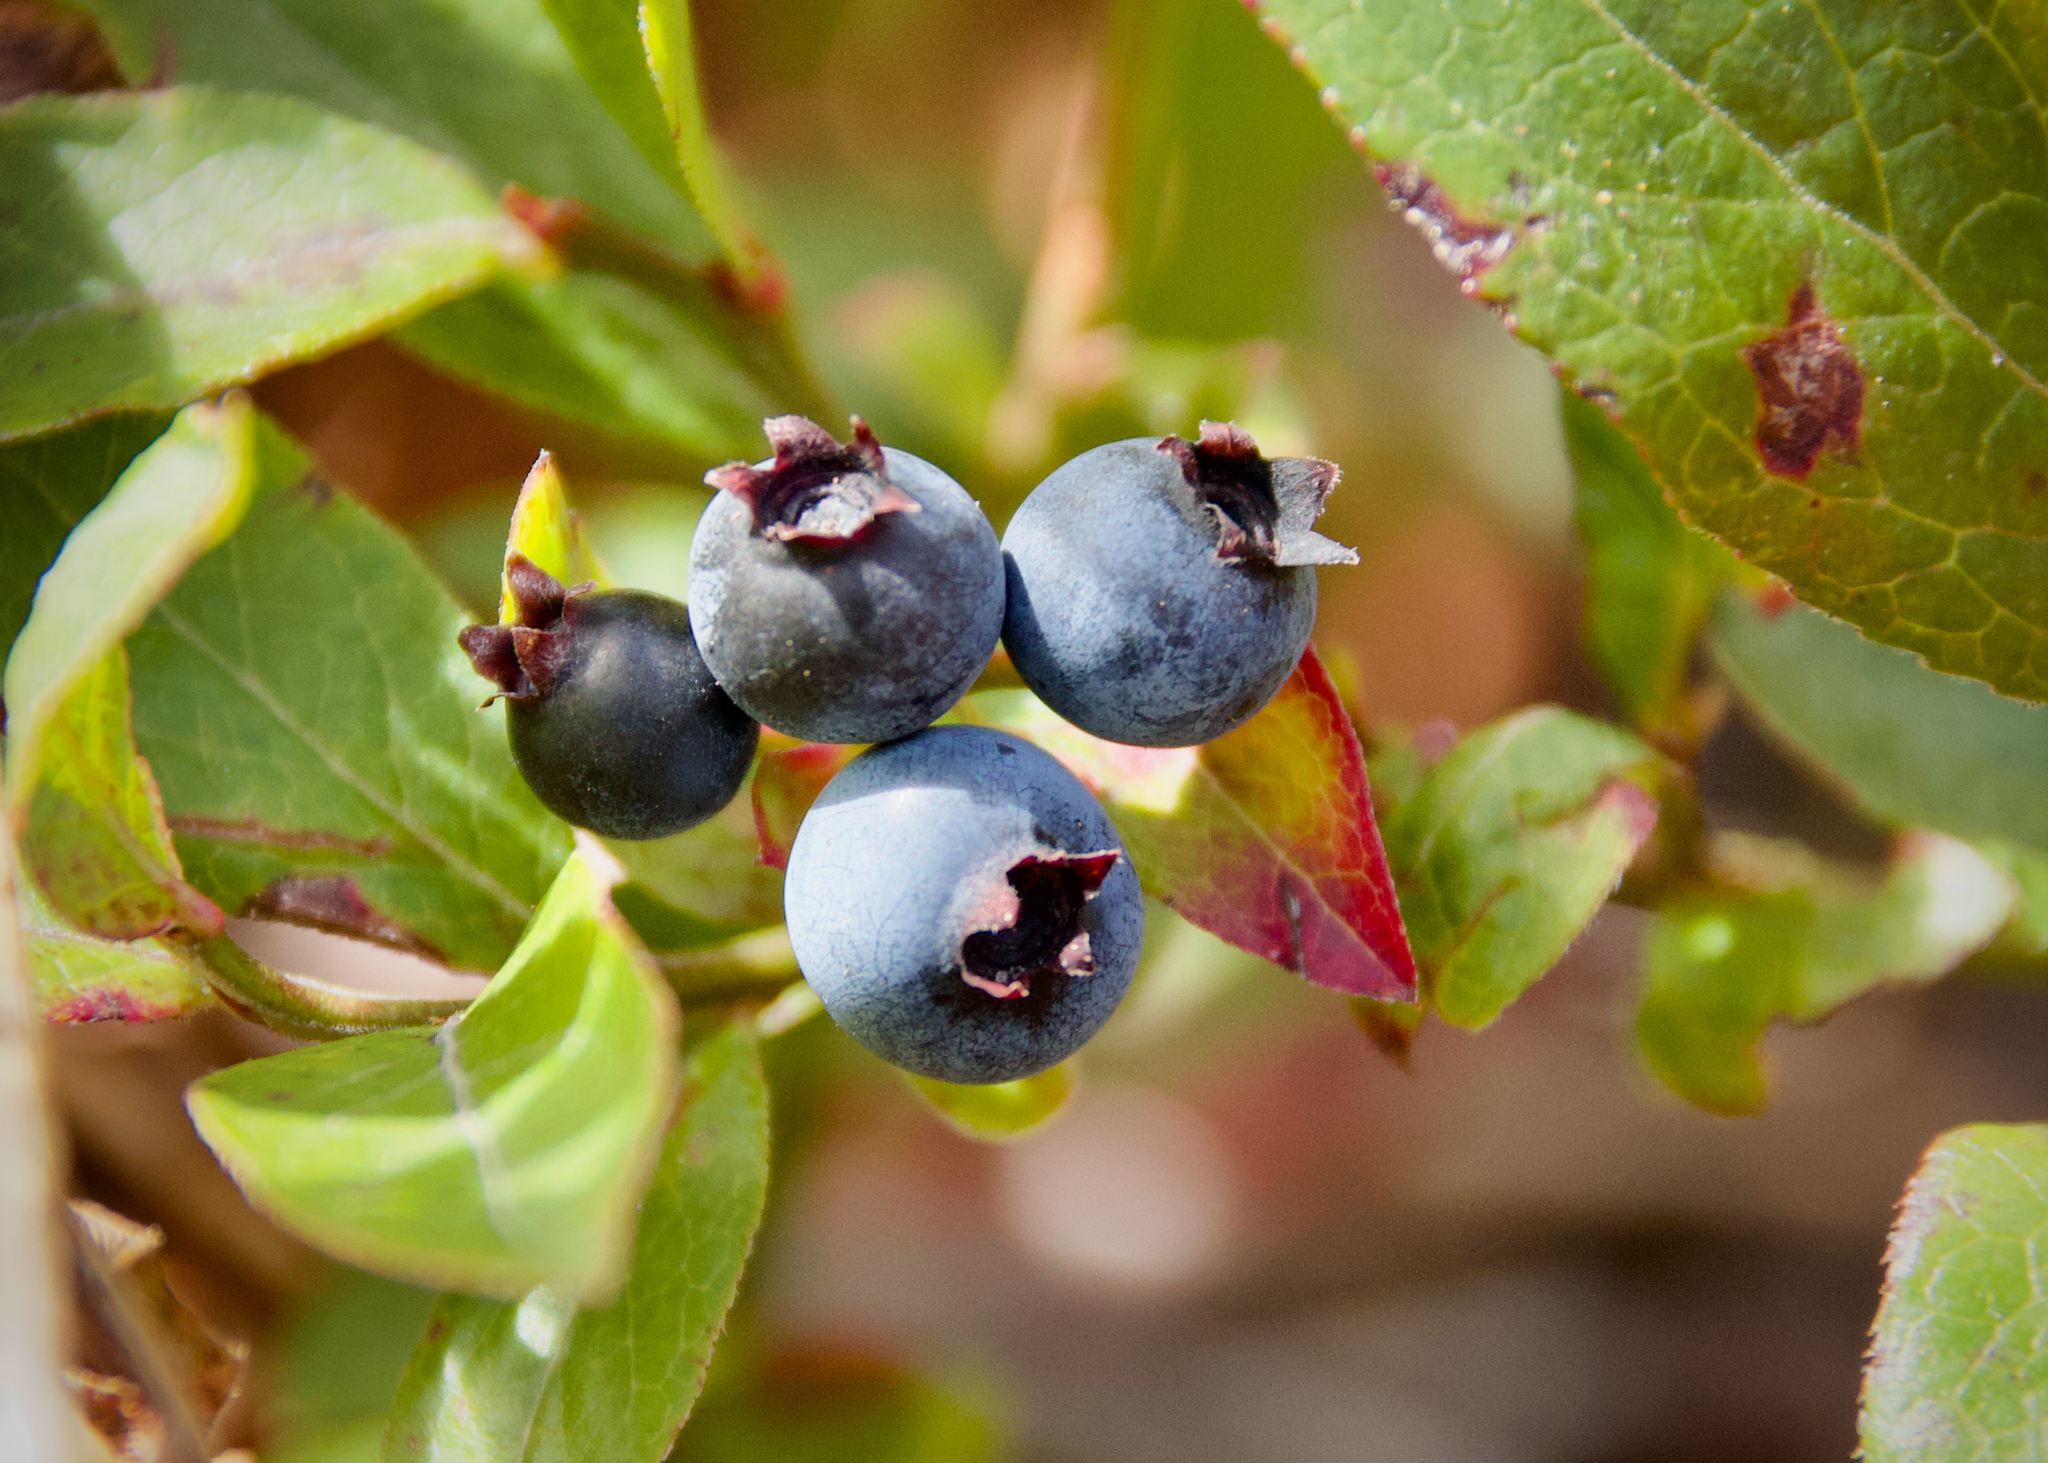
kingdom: Plantae
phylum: Tracheophyta
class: Magnoliopsida
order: Ericales
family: Ericaceae
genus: Vaccinium
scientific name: Vaccinium angustifolium
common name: Early lowbush blueberry
